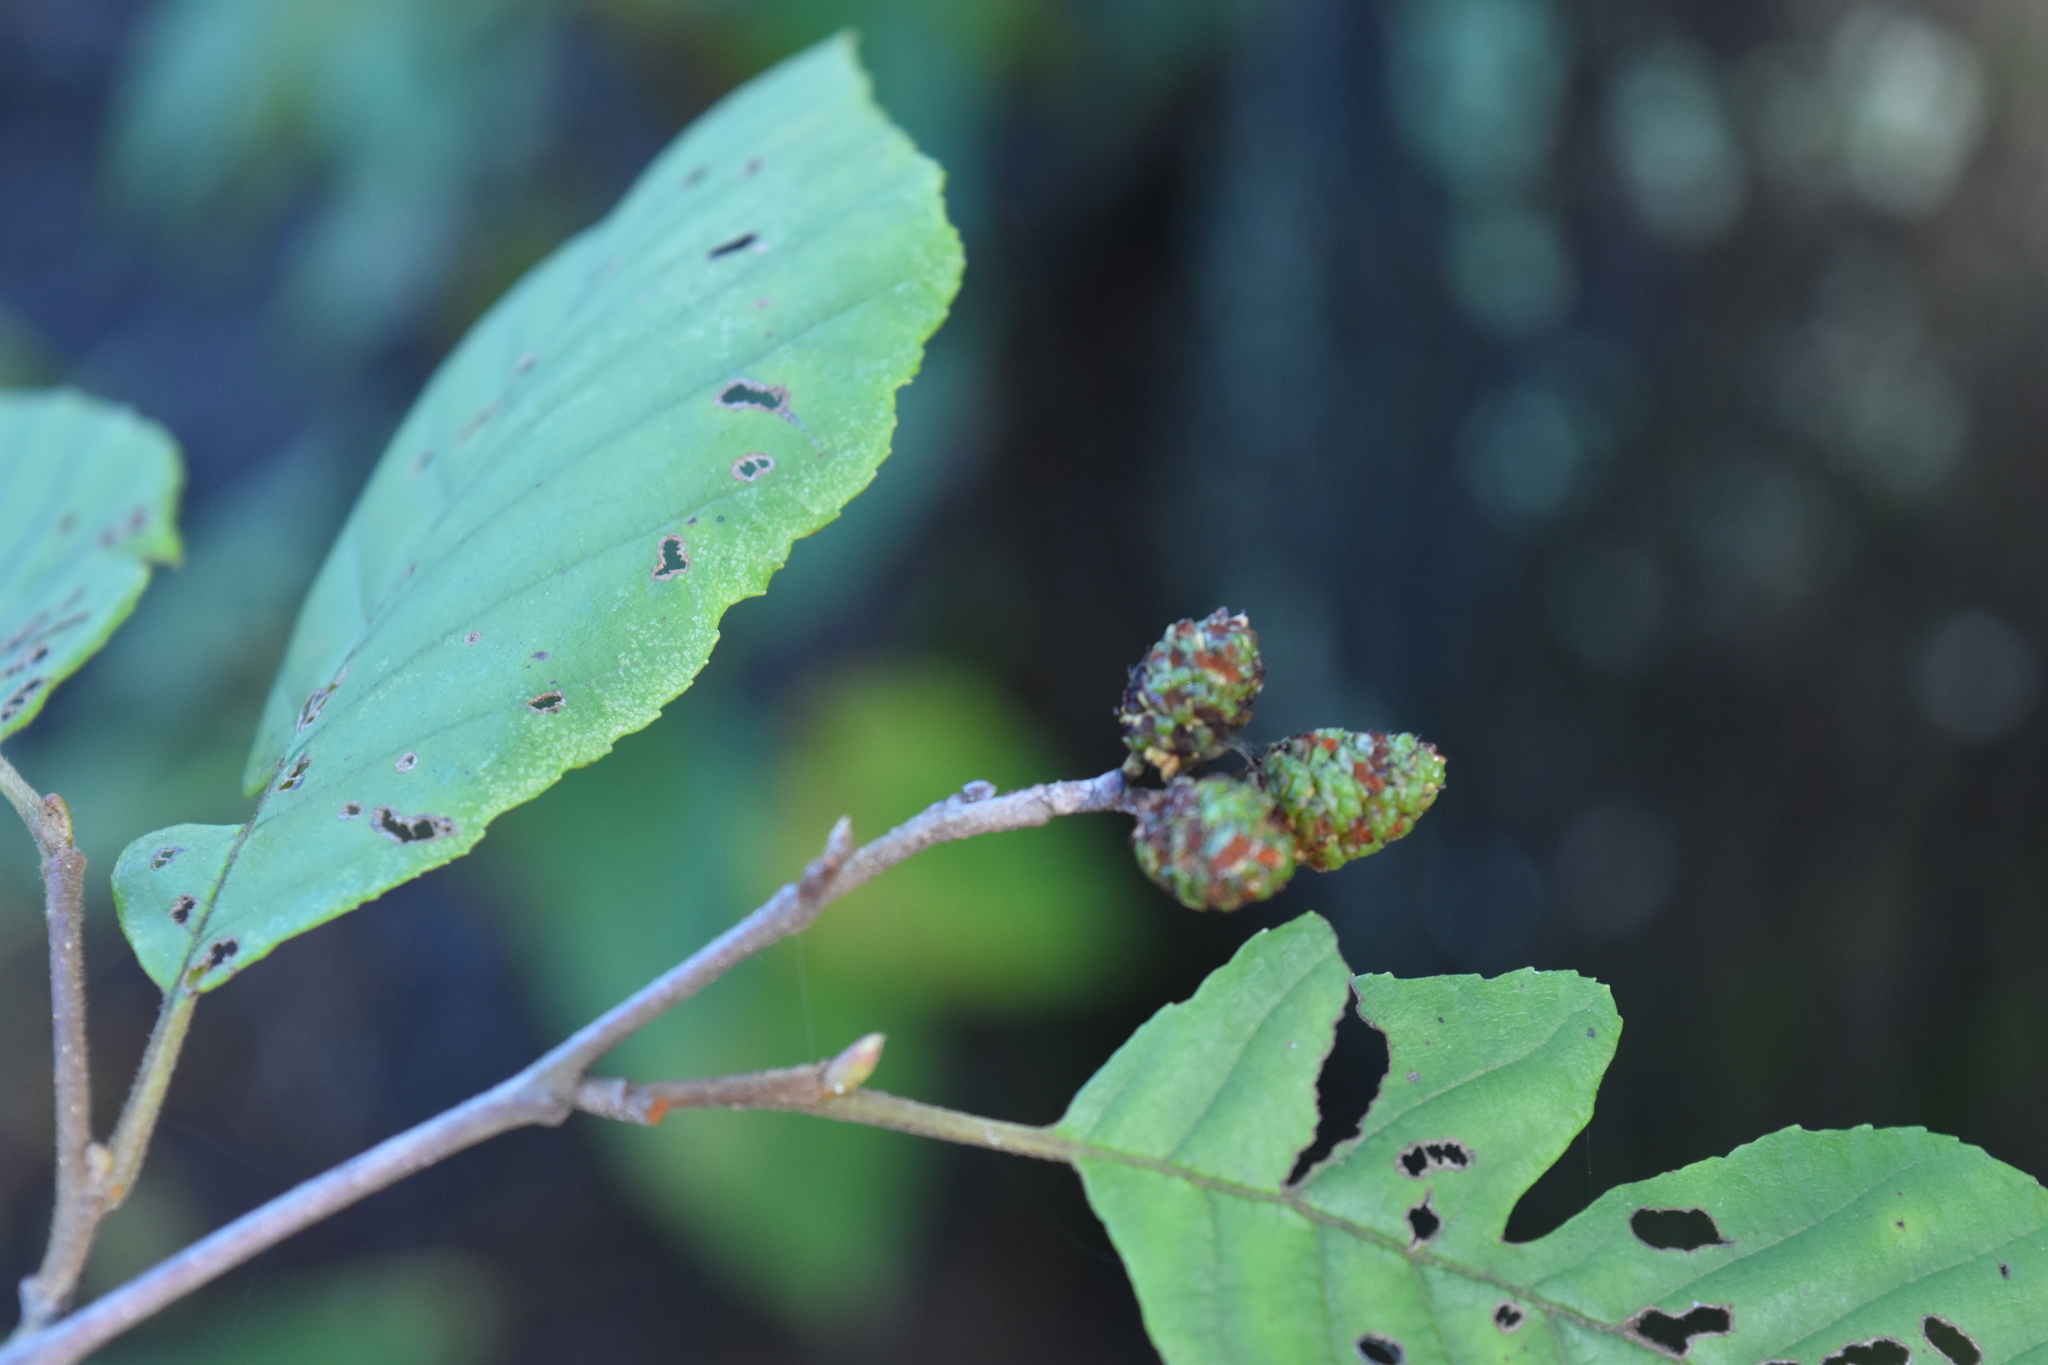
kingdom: Plantae
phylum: Tracheophyta
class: Magnoliopsida
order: Fagales
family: Betulaceae
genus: Alnus
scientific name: Alnus serrulata
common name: Hazel alder
